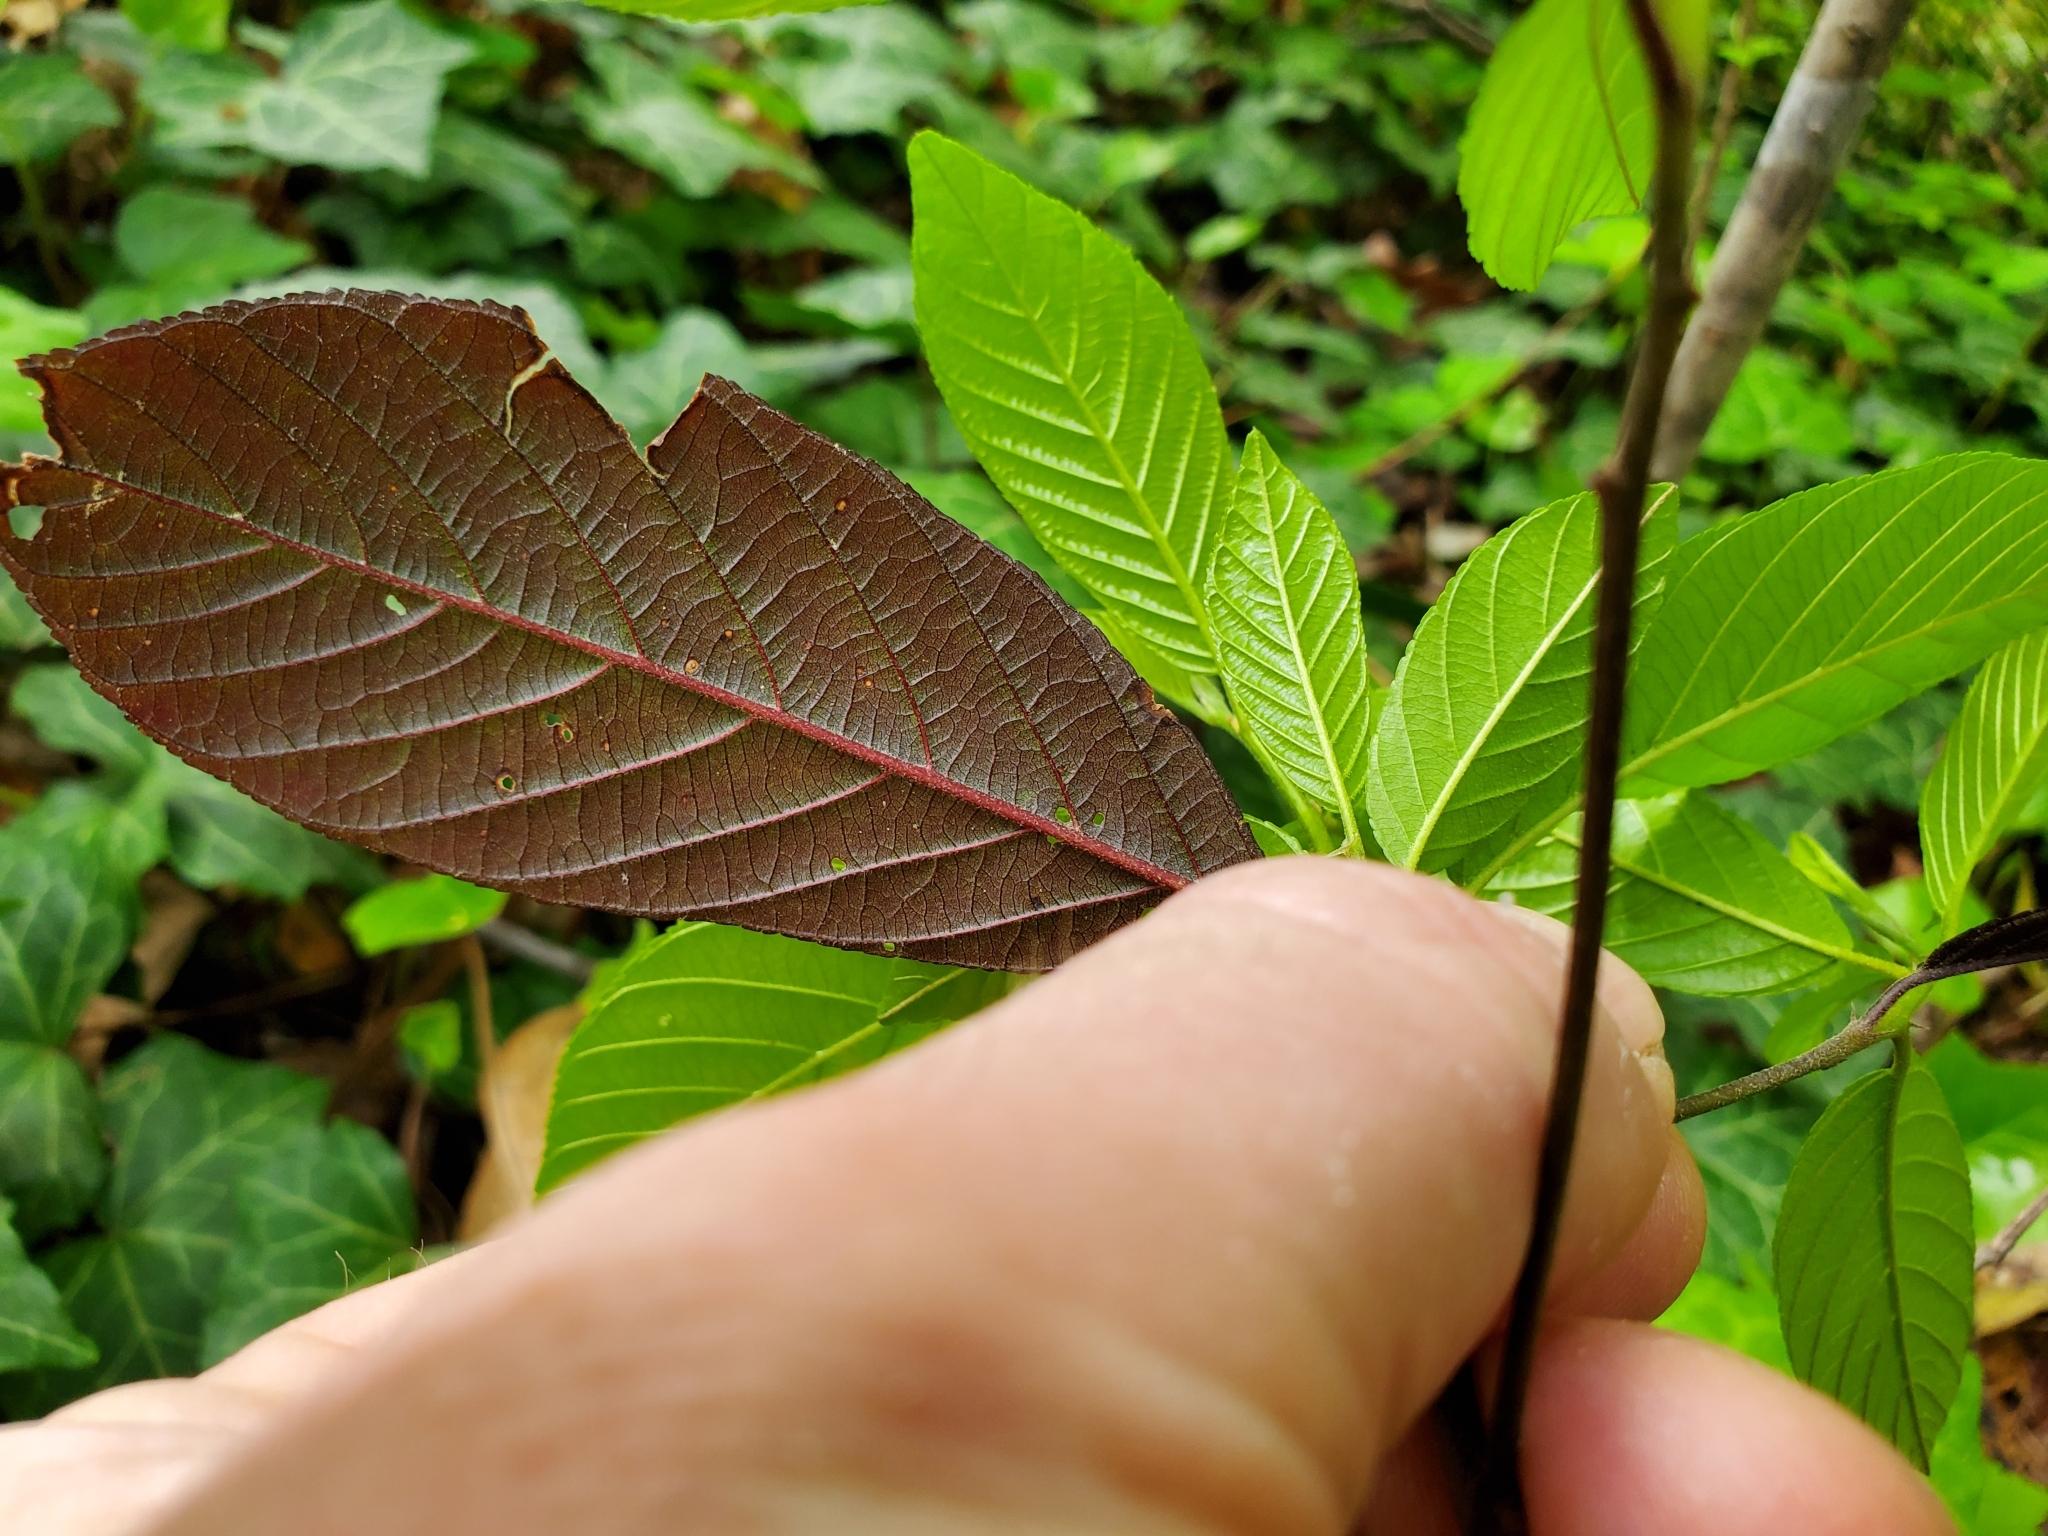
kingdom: Plantae
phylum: Tracheophyta
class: Magnoliopsida
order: Rosales
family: Rhamnaceae
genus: Frangula
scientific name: Frangula caroliniana
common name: Carolina buckthorn
